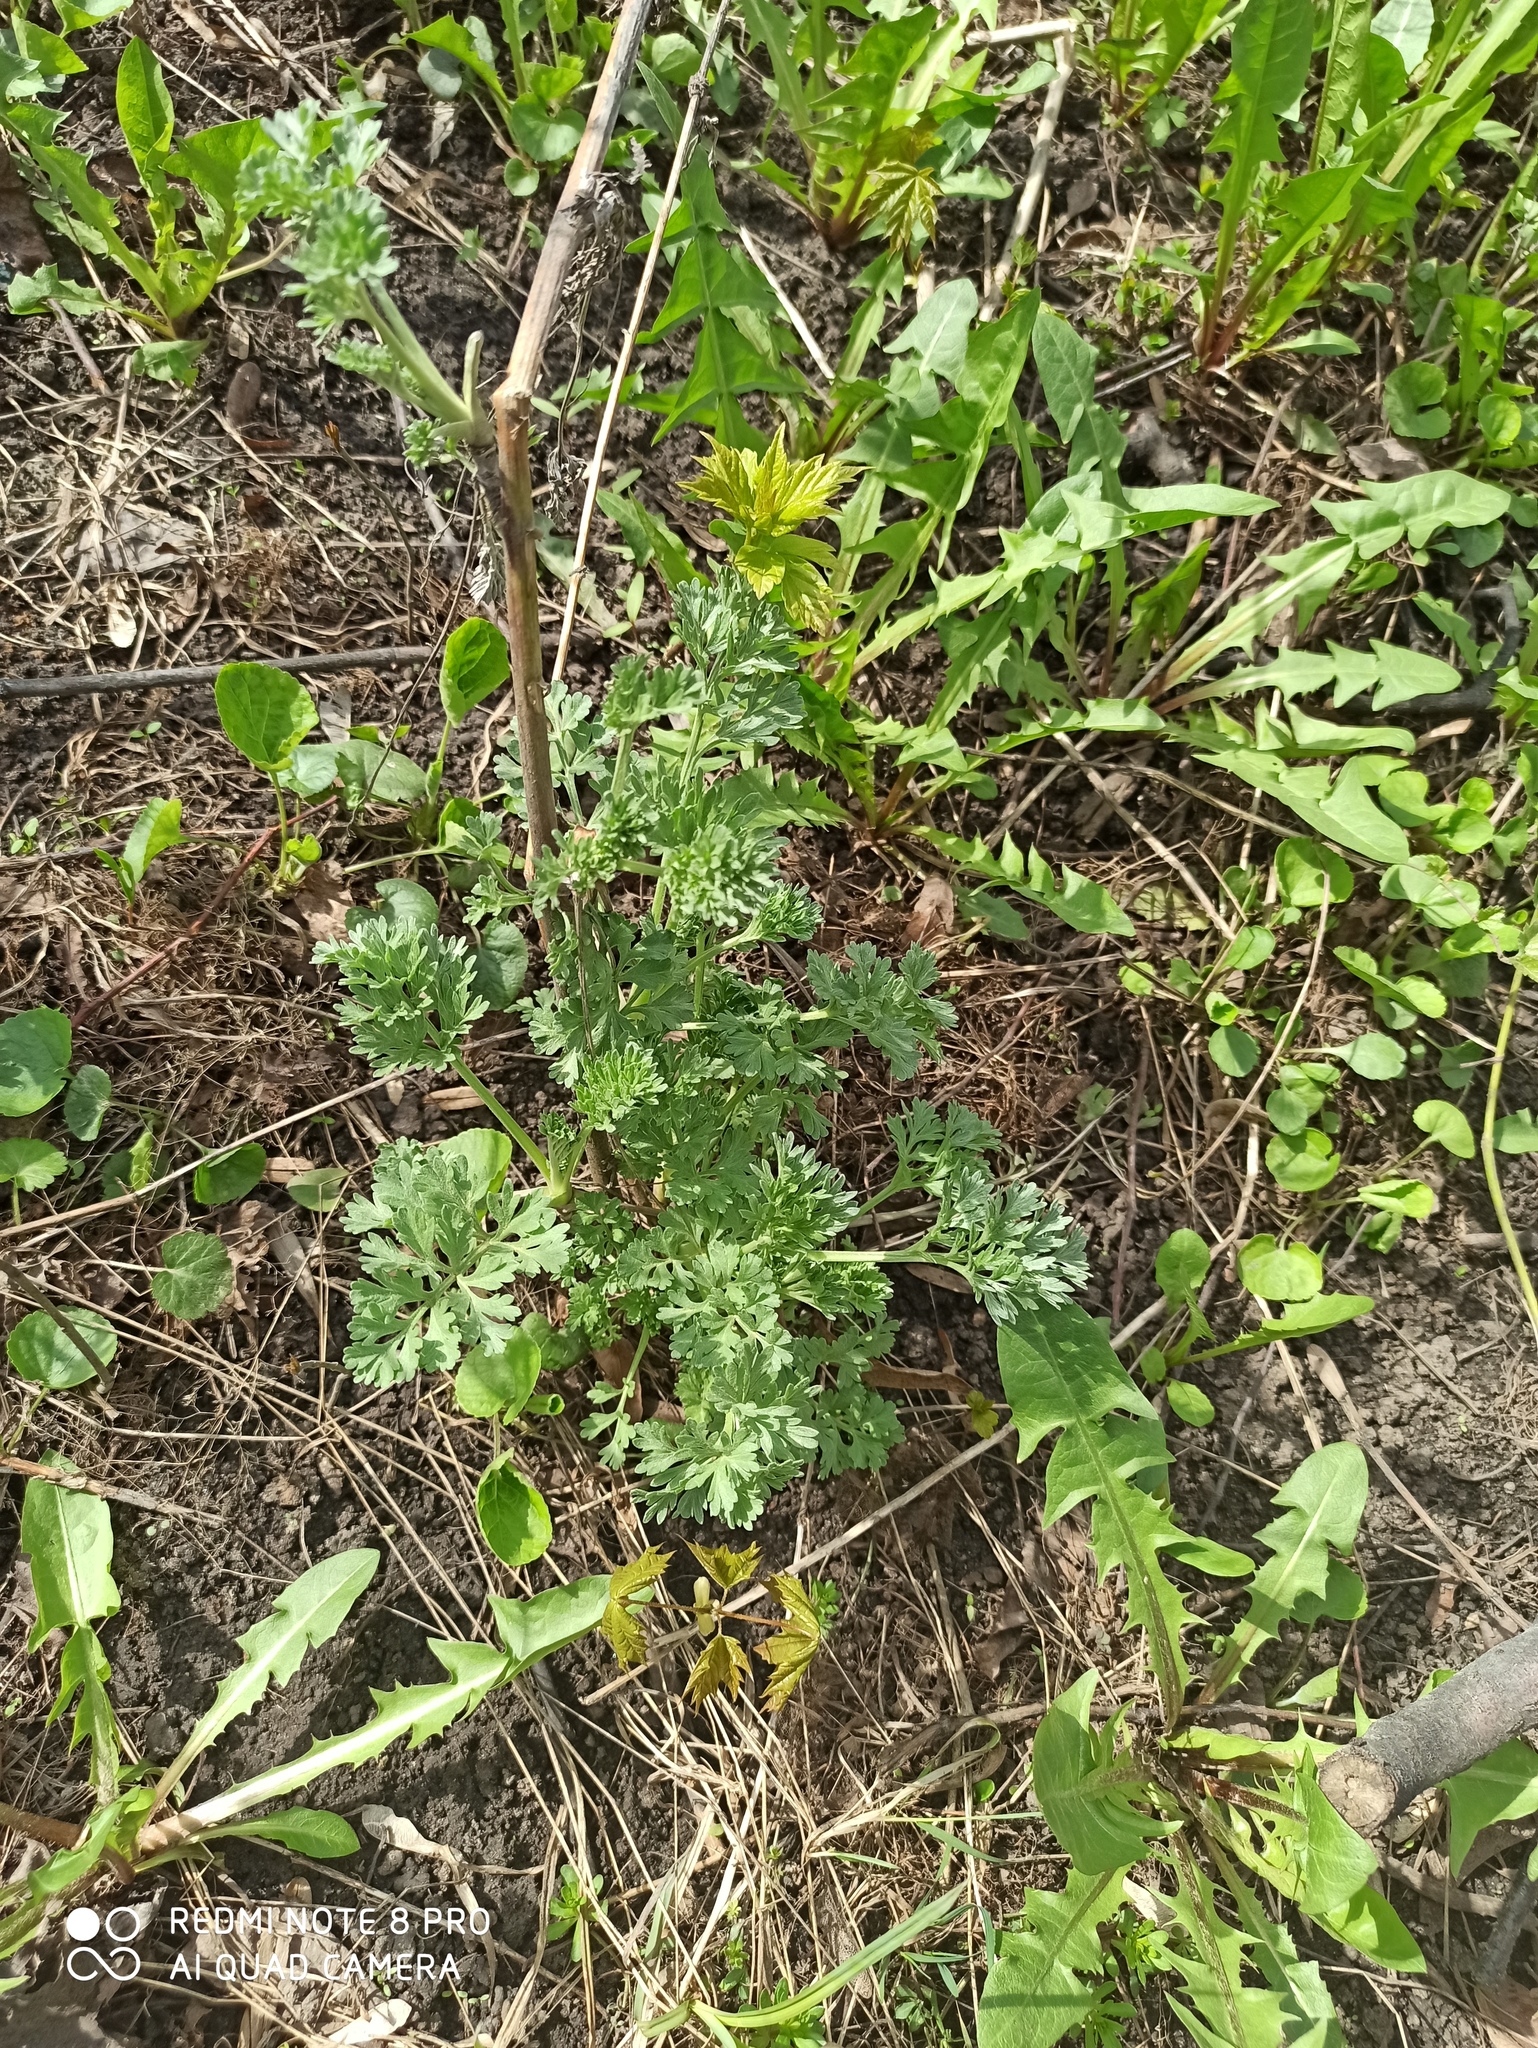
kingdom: Plantae
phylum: Tracheophyta
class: Magnoliopsida
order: Asterales
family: Asteraceae
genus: Artemisia
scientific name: Artemisia absinthium
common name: Wormwood
